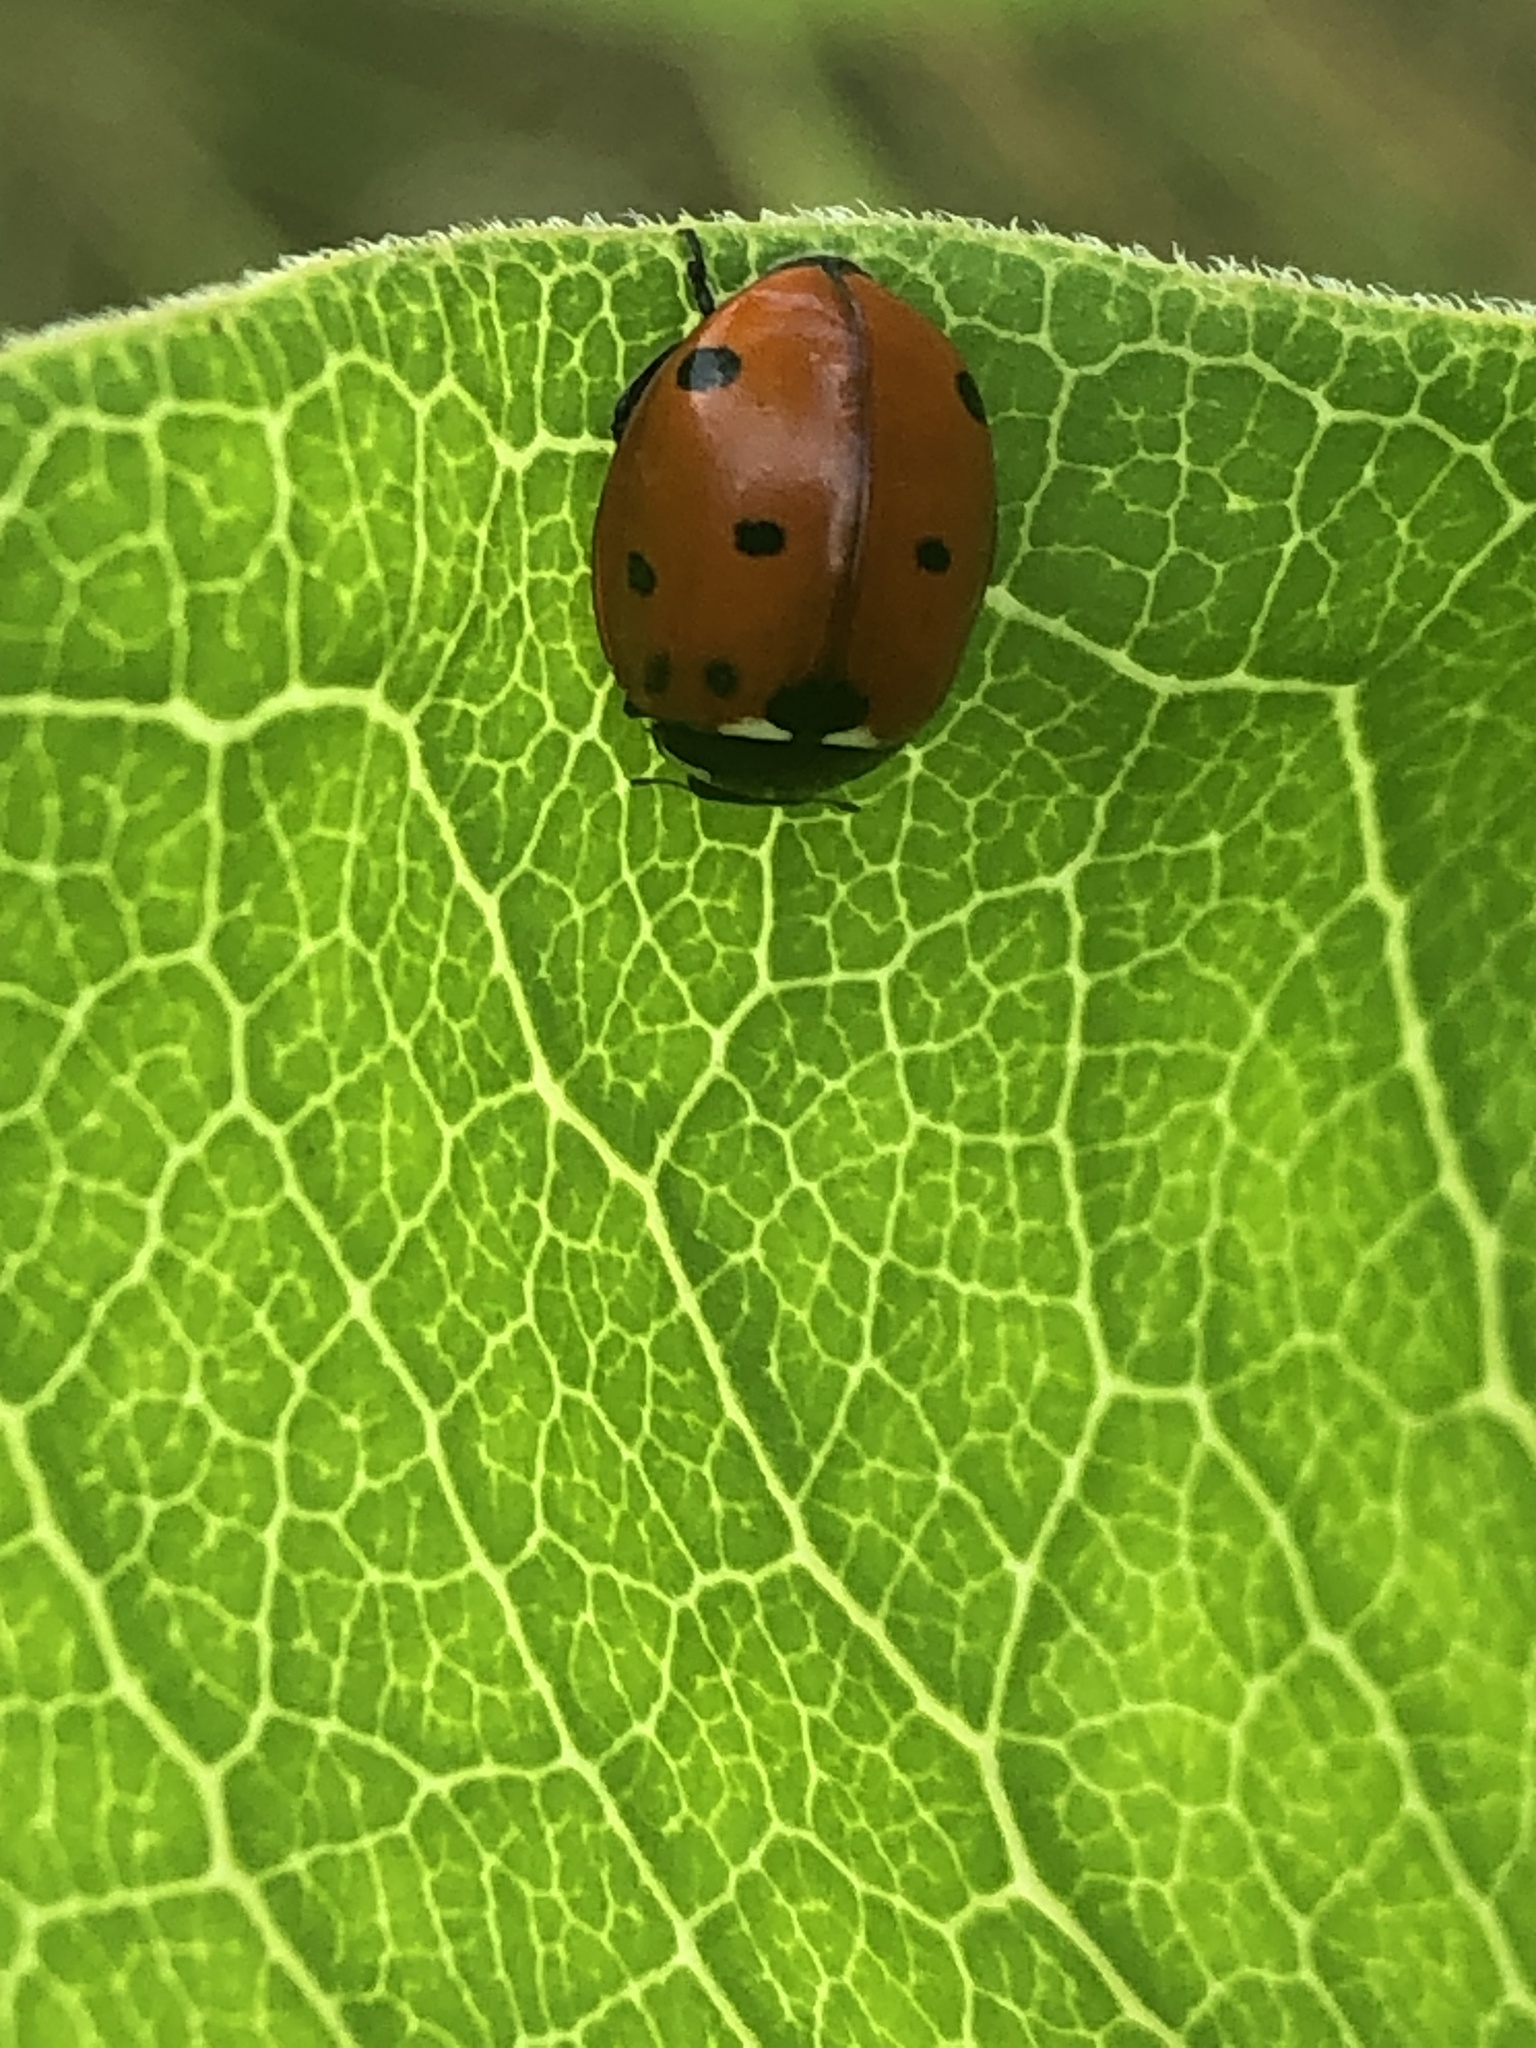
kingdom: Animalia
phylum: Arthropoda
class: Insecta
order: Coleoptera
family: Coccinellidae
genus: Coccinella
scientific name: Coccinella septempunctata
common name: Sevenspotted lady beetle
